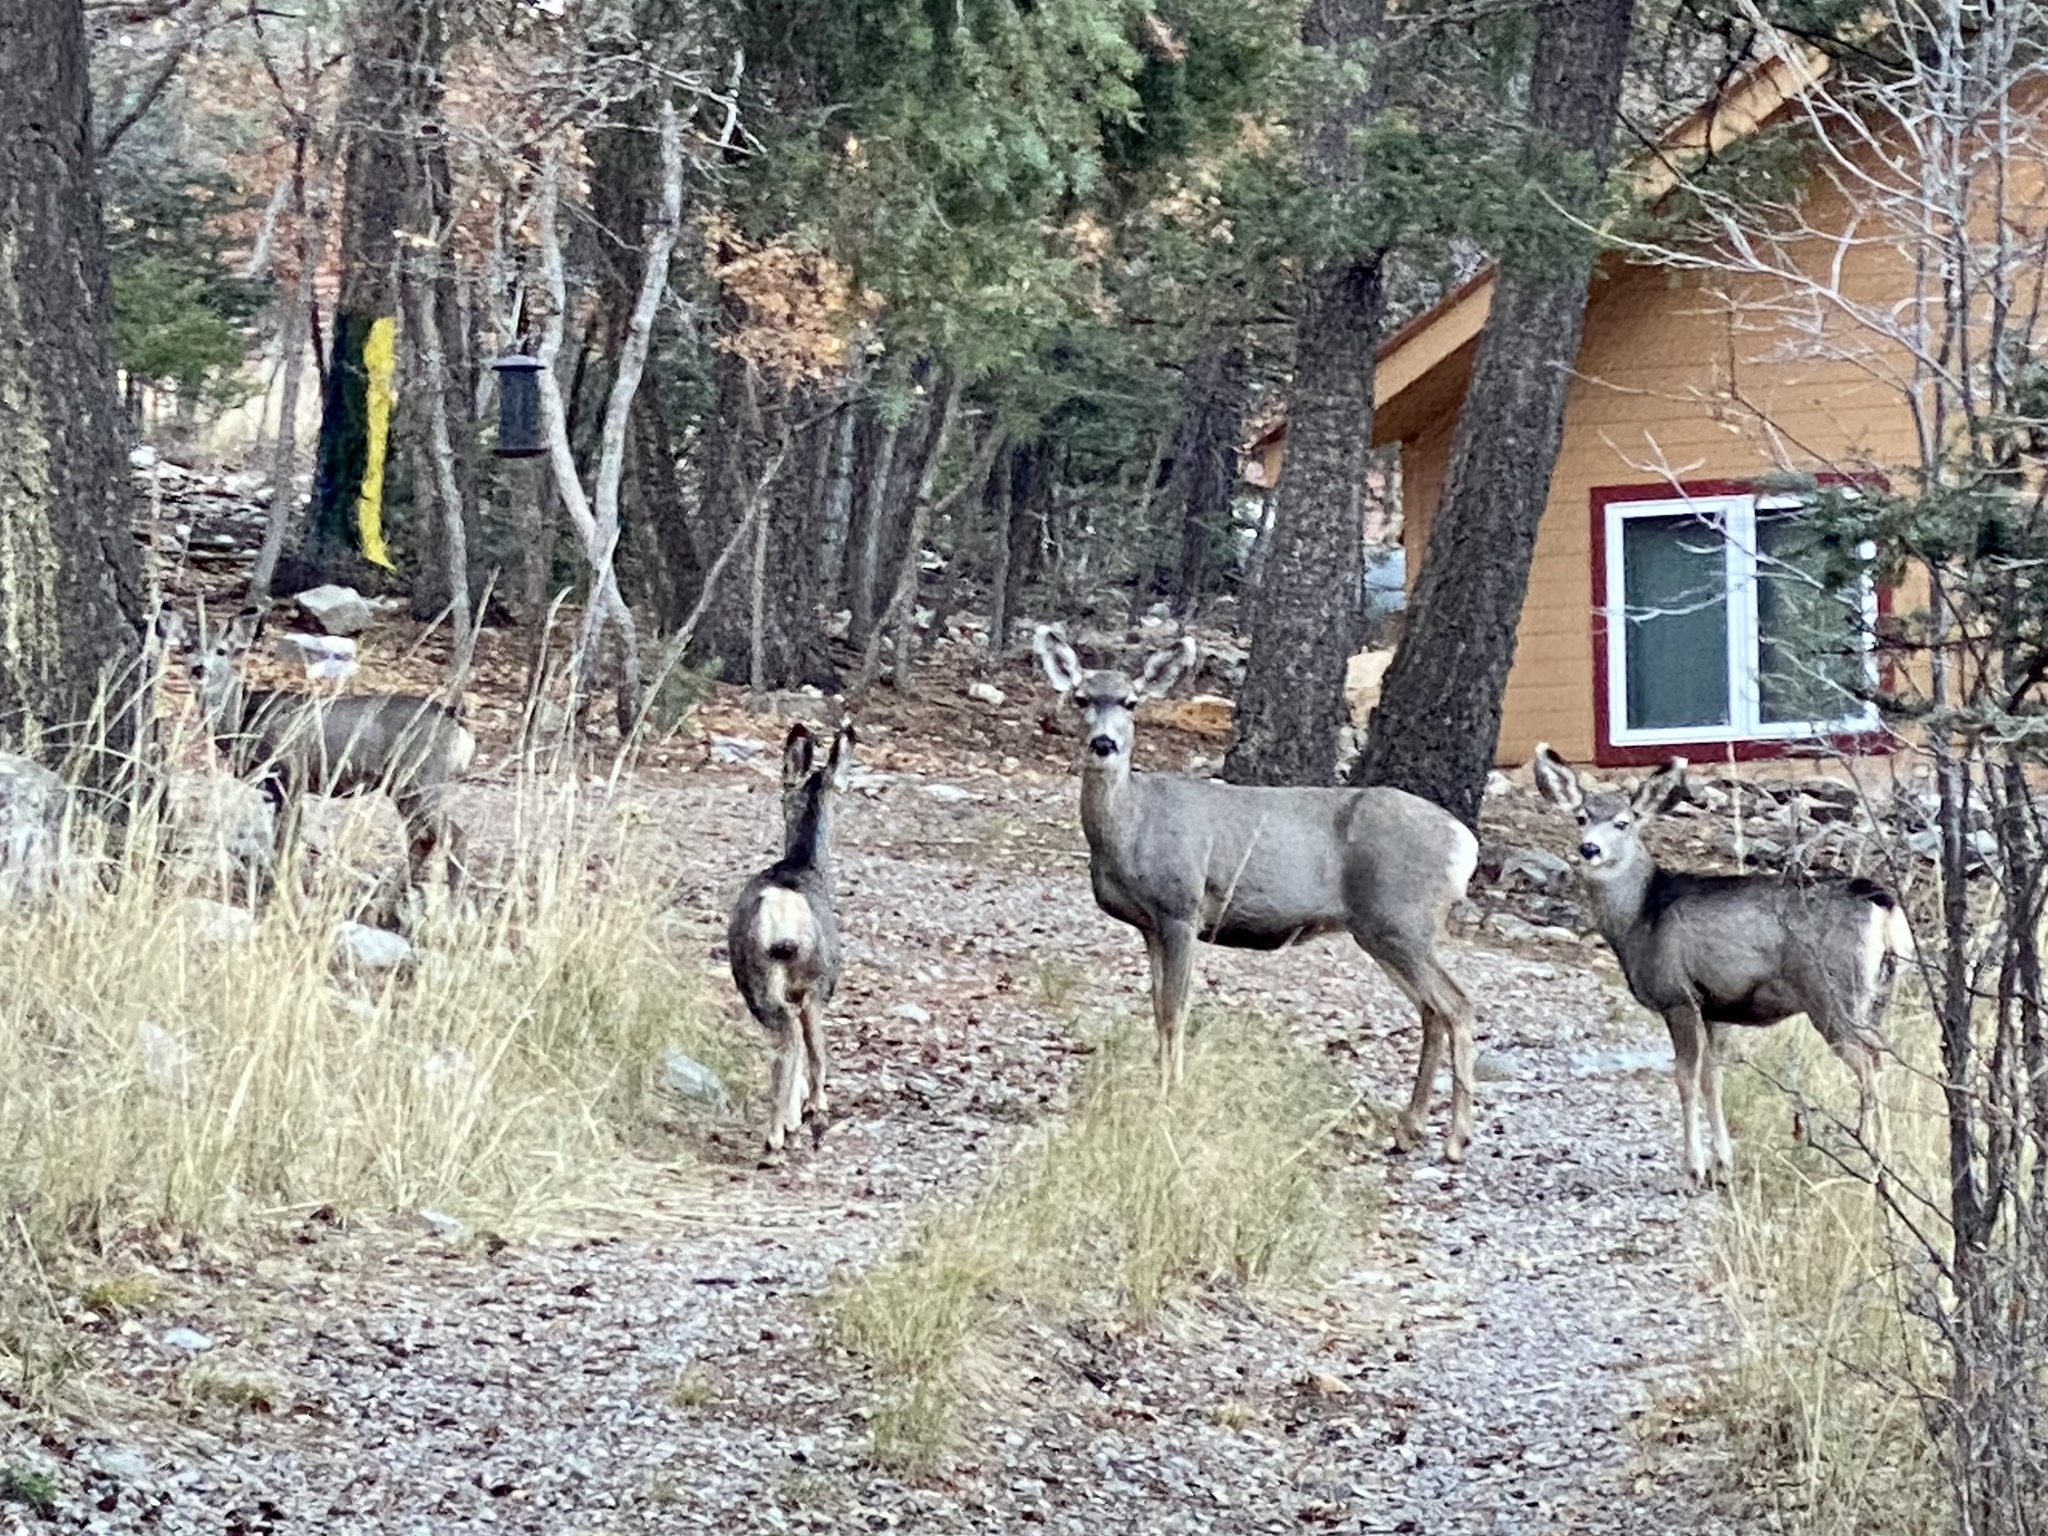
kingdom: Animalia
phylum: Chordata
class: Mammalia
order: Artiodactyla
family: Cervidae
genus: Odocoileus
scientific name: Odocoileus hemionus
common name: Mule deer
